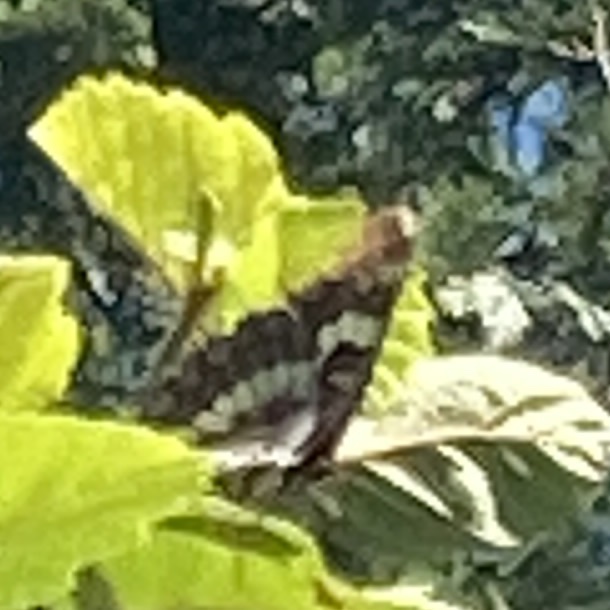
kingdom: Animalia
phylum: Arthropoda
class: Insecta
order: Lepidoptera
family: Nymphalidae
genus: Limenitis
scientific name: Limenitis lorquini
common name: Lorquin's admiral
